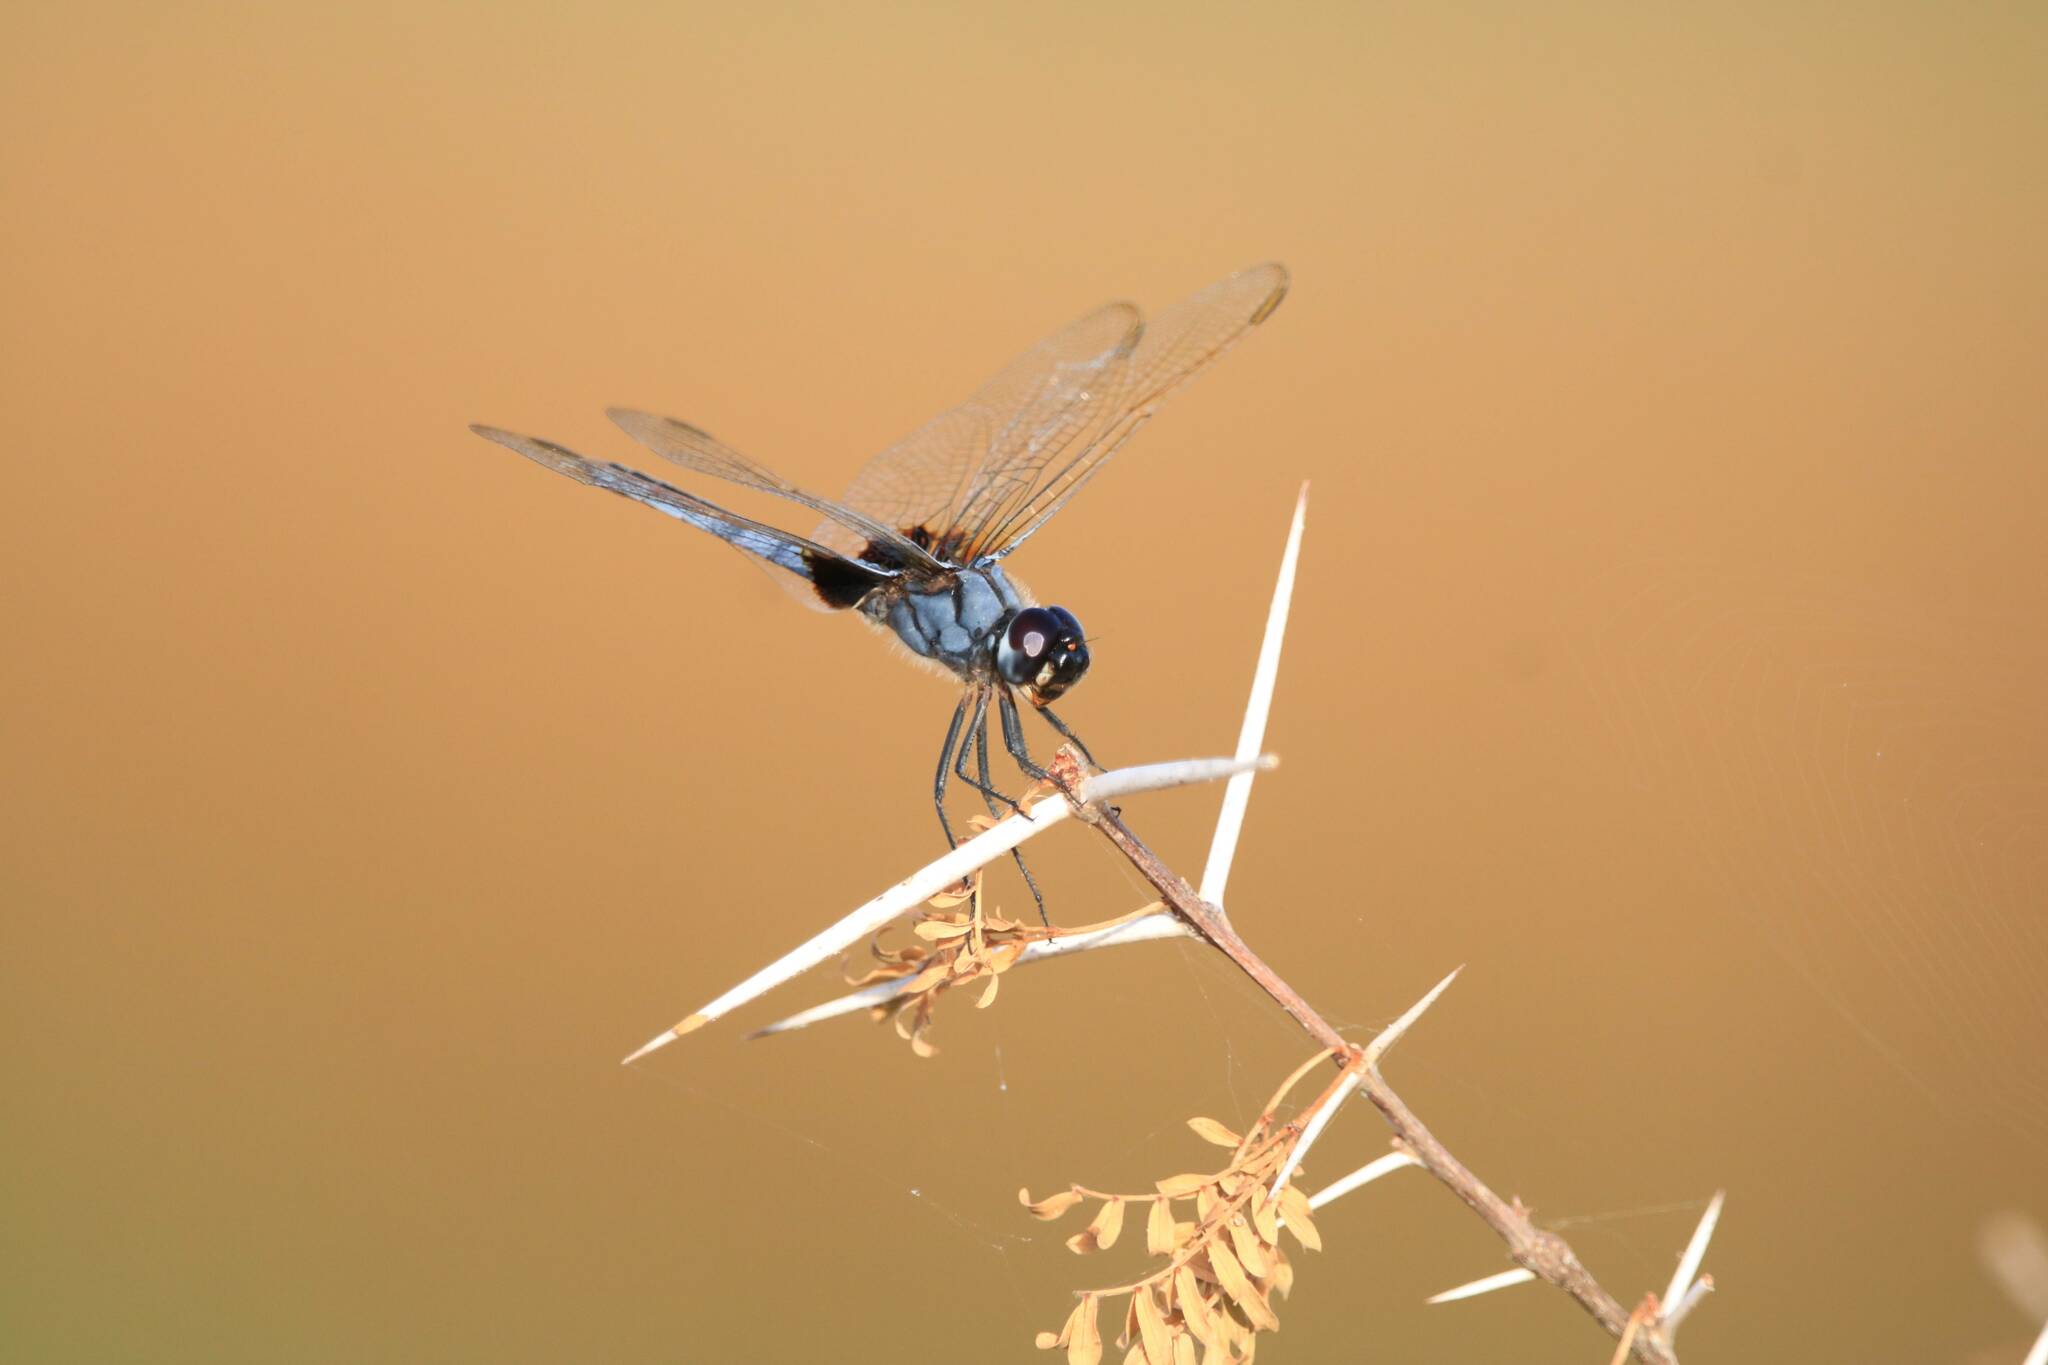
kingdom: Animalia
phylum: Arthropoda
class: Insecta
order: Odonata
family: Libellulidae
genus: Urothemis
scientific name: Urothemis edwardsii
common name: Blue basker
